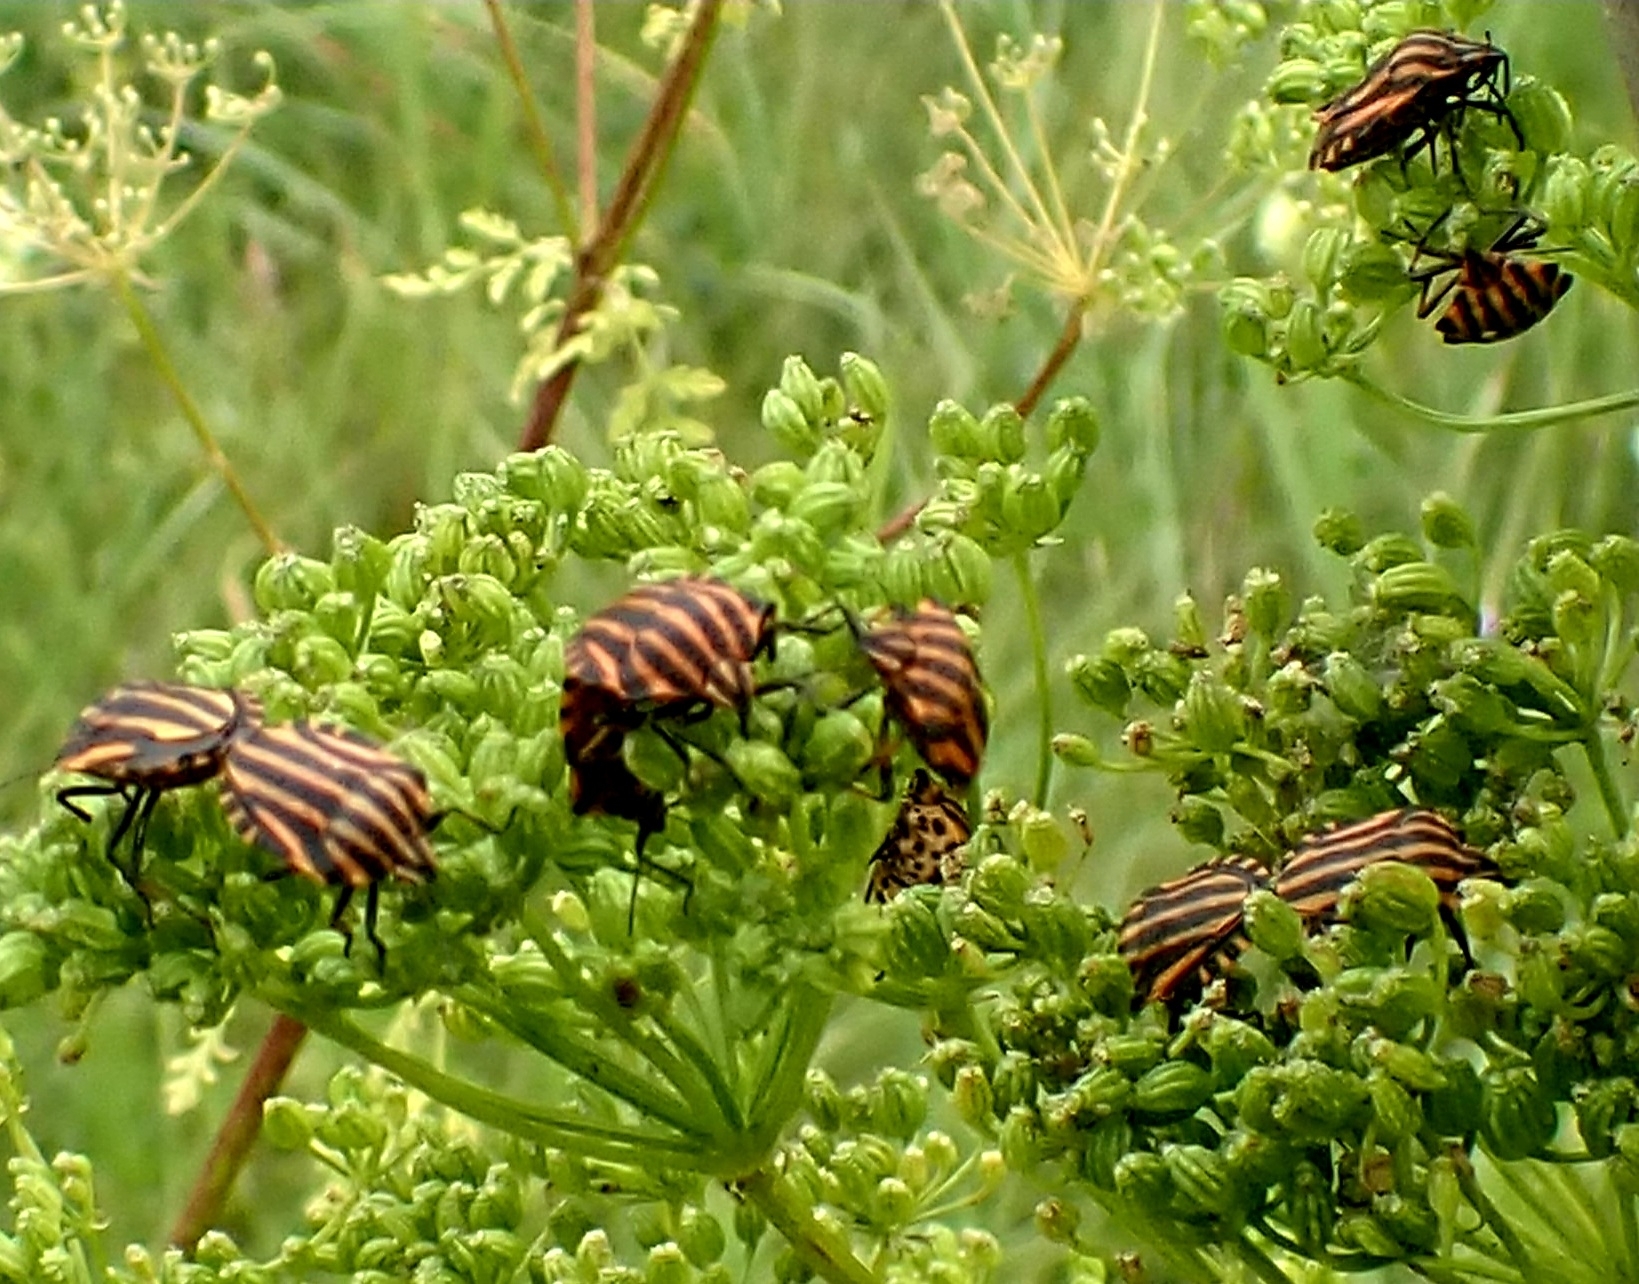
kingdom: Animalia
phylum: Arthropoda
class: Insecta
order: Hemiptera
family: Pentatomidae
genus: Graphosoma
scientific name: Graphosoma italicum
